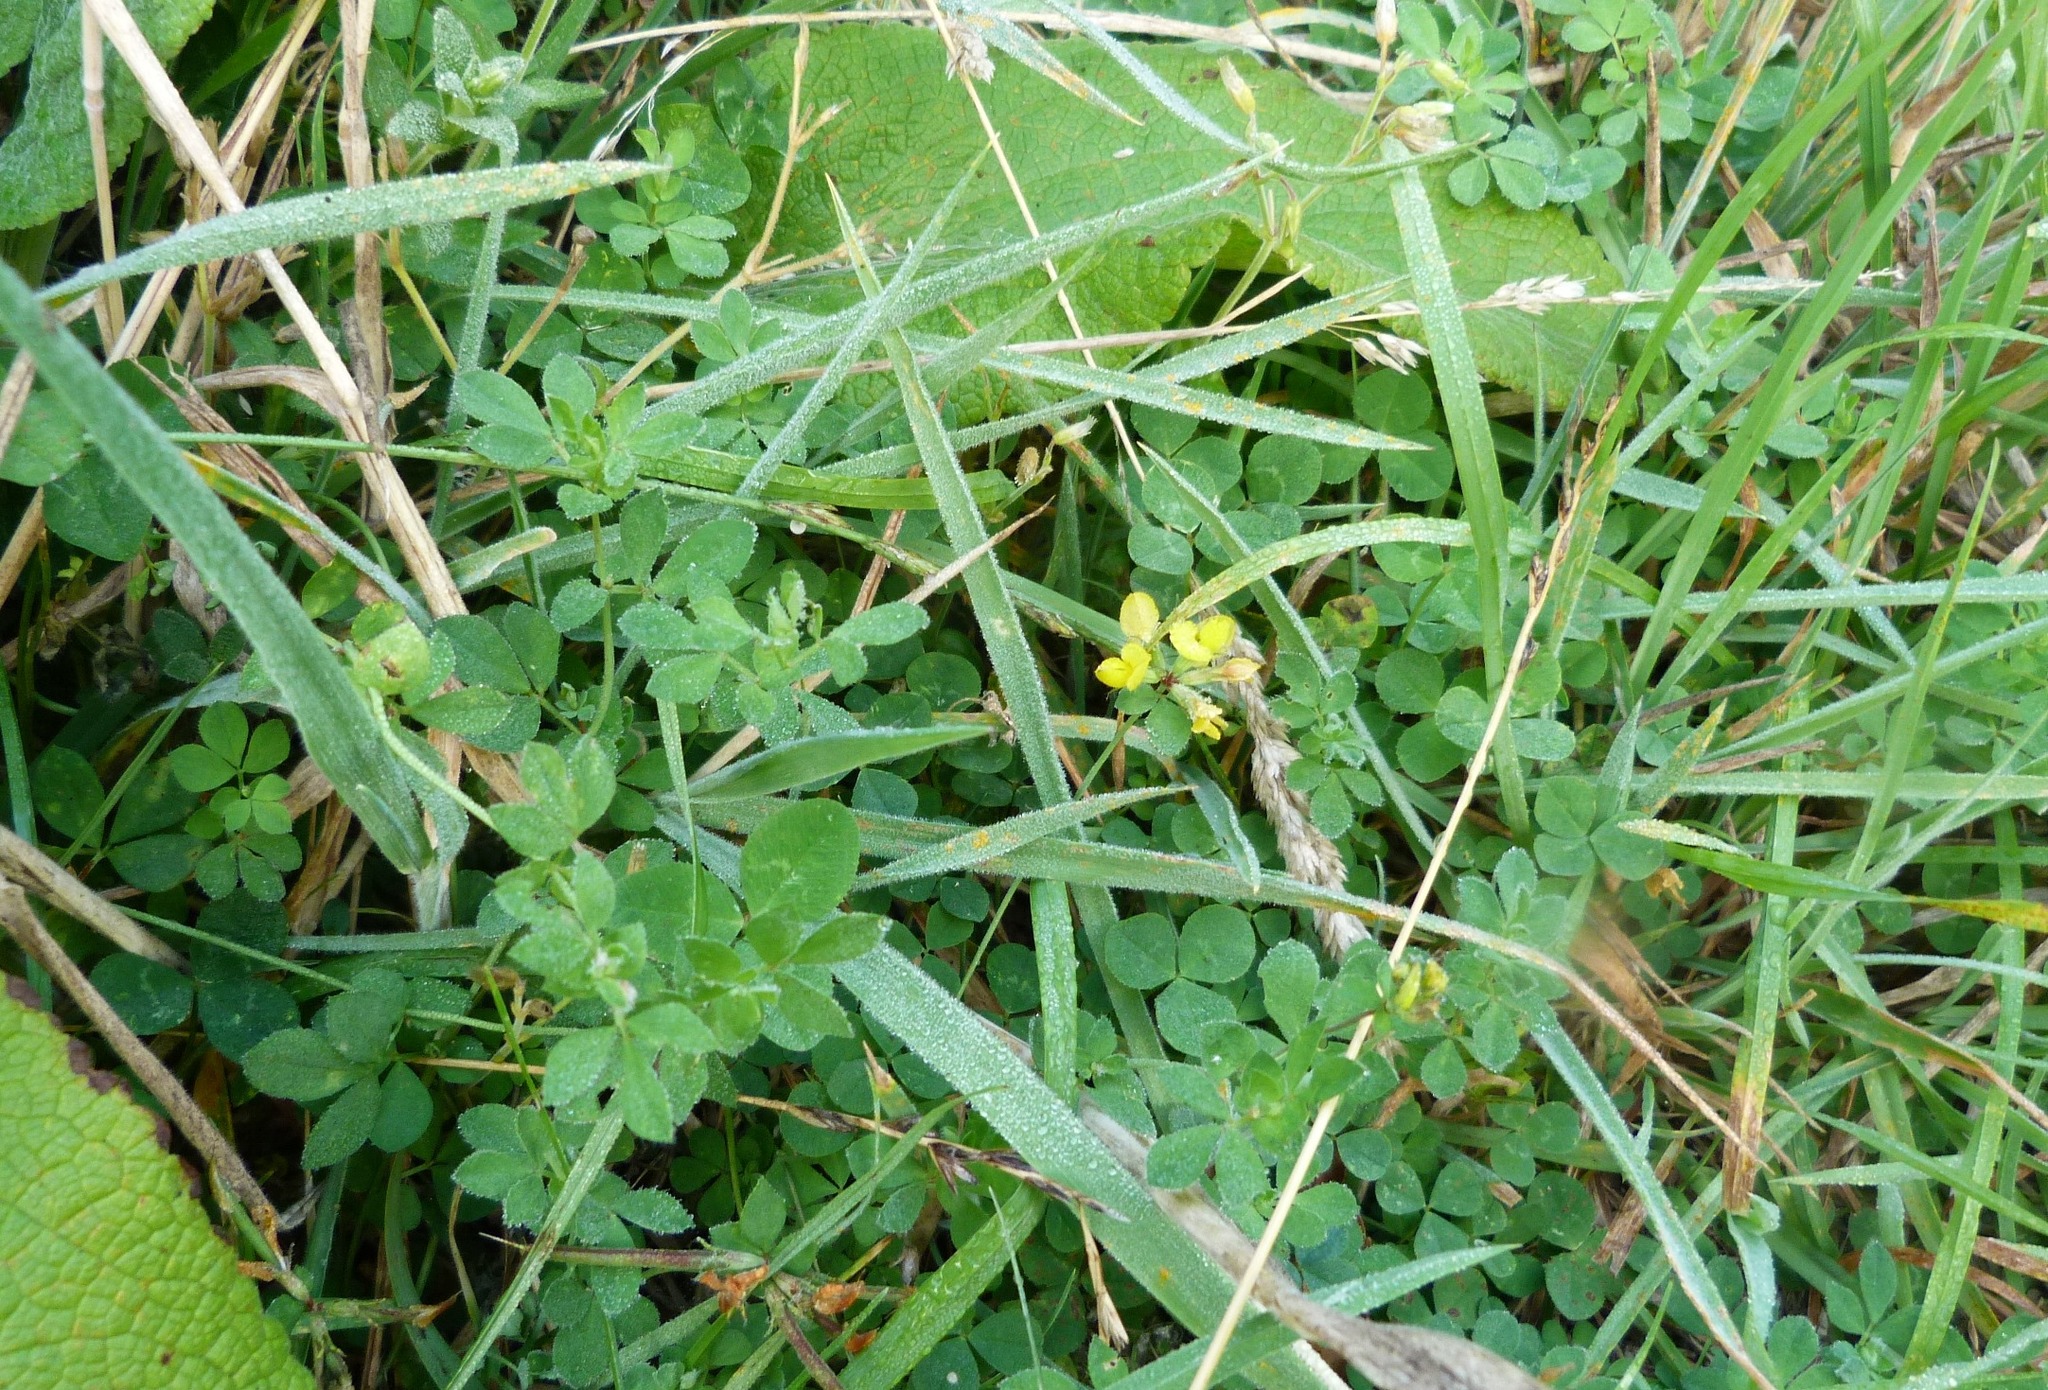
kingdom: Plantae
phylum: Tracheophyta
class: Magnoliopsida
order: Fabales
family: Fabaceae
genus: Lotus
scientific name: Lotus pedunculatus
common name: Greater birdsfoot-trefoil
